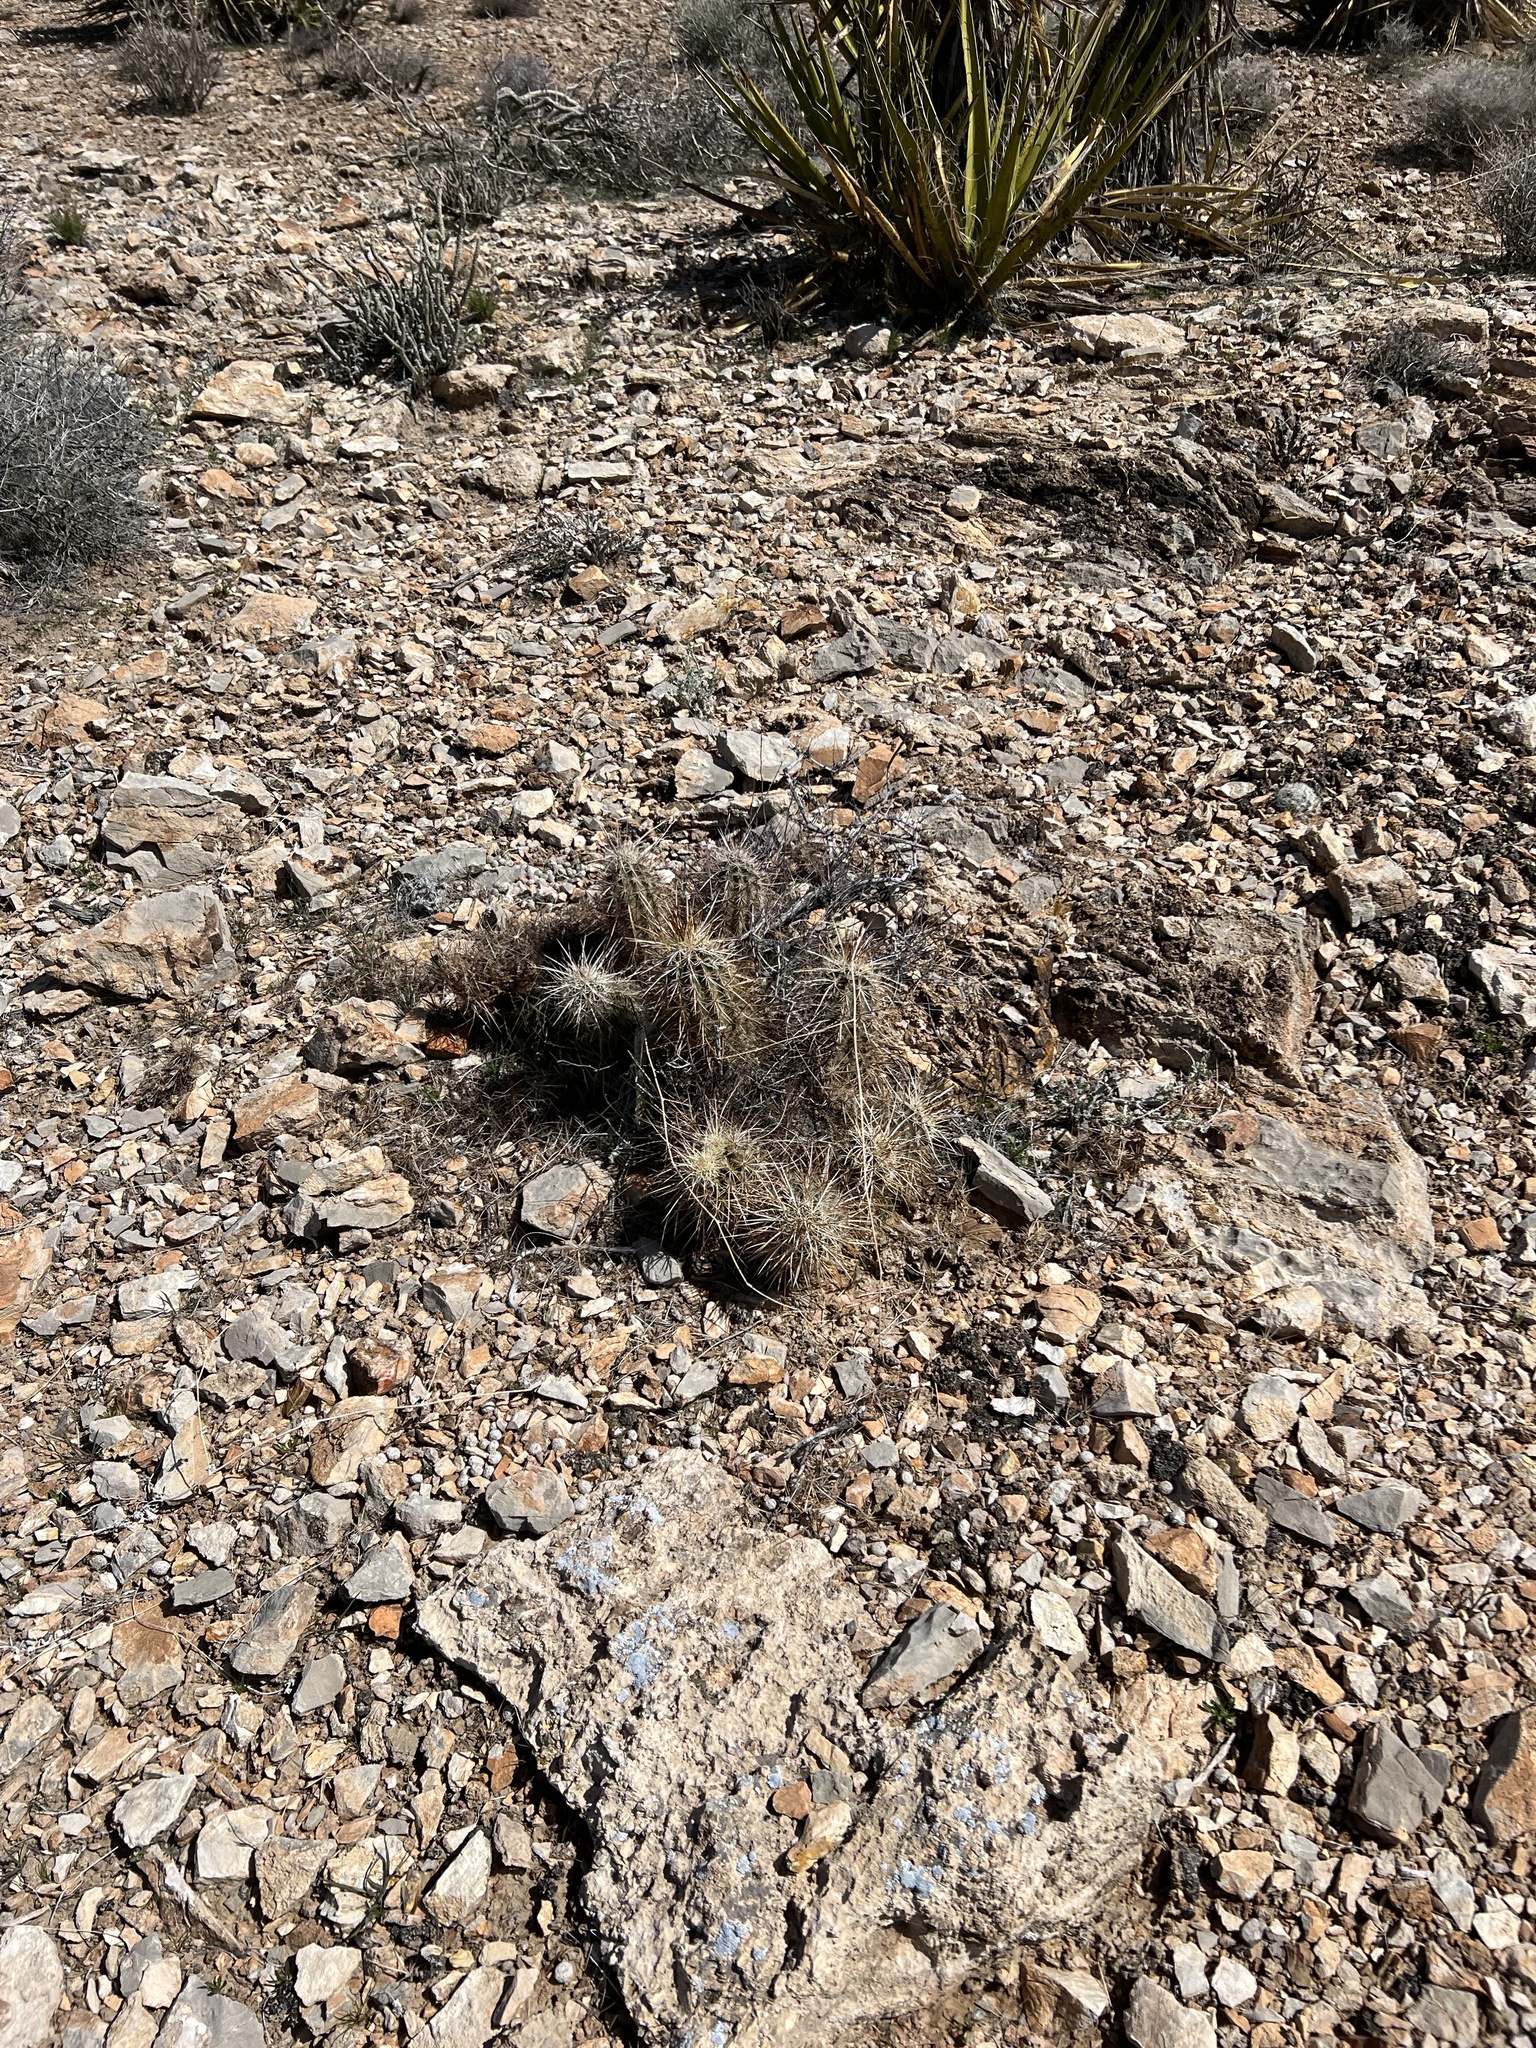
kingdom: Plantae
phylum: Tracheophyta
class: Magnoliopsida
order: Caryophyllales
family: Cactaceae
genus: Echinocereus
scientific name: Echinocereus engelmannii
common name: Engelmann's hedgehog cactus
